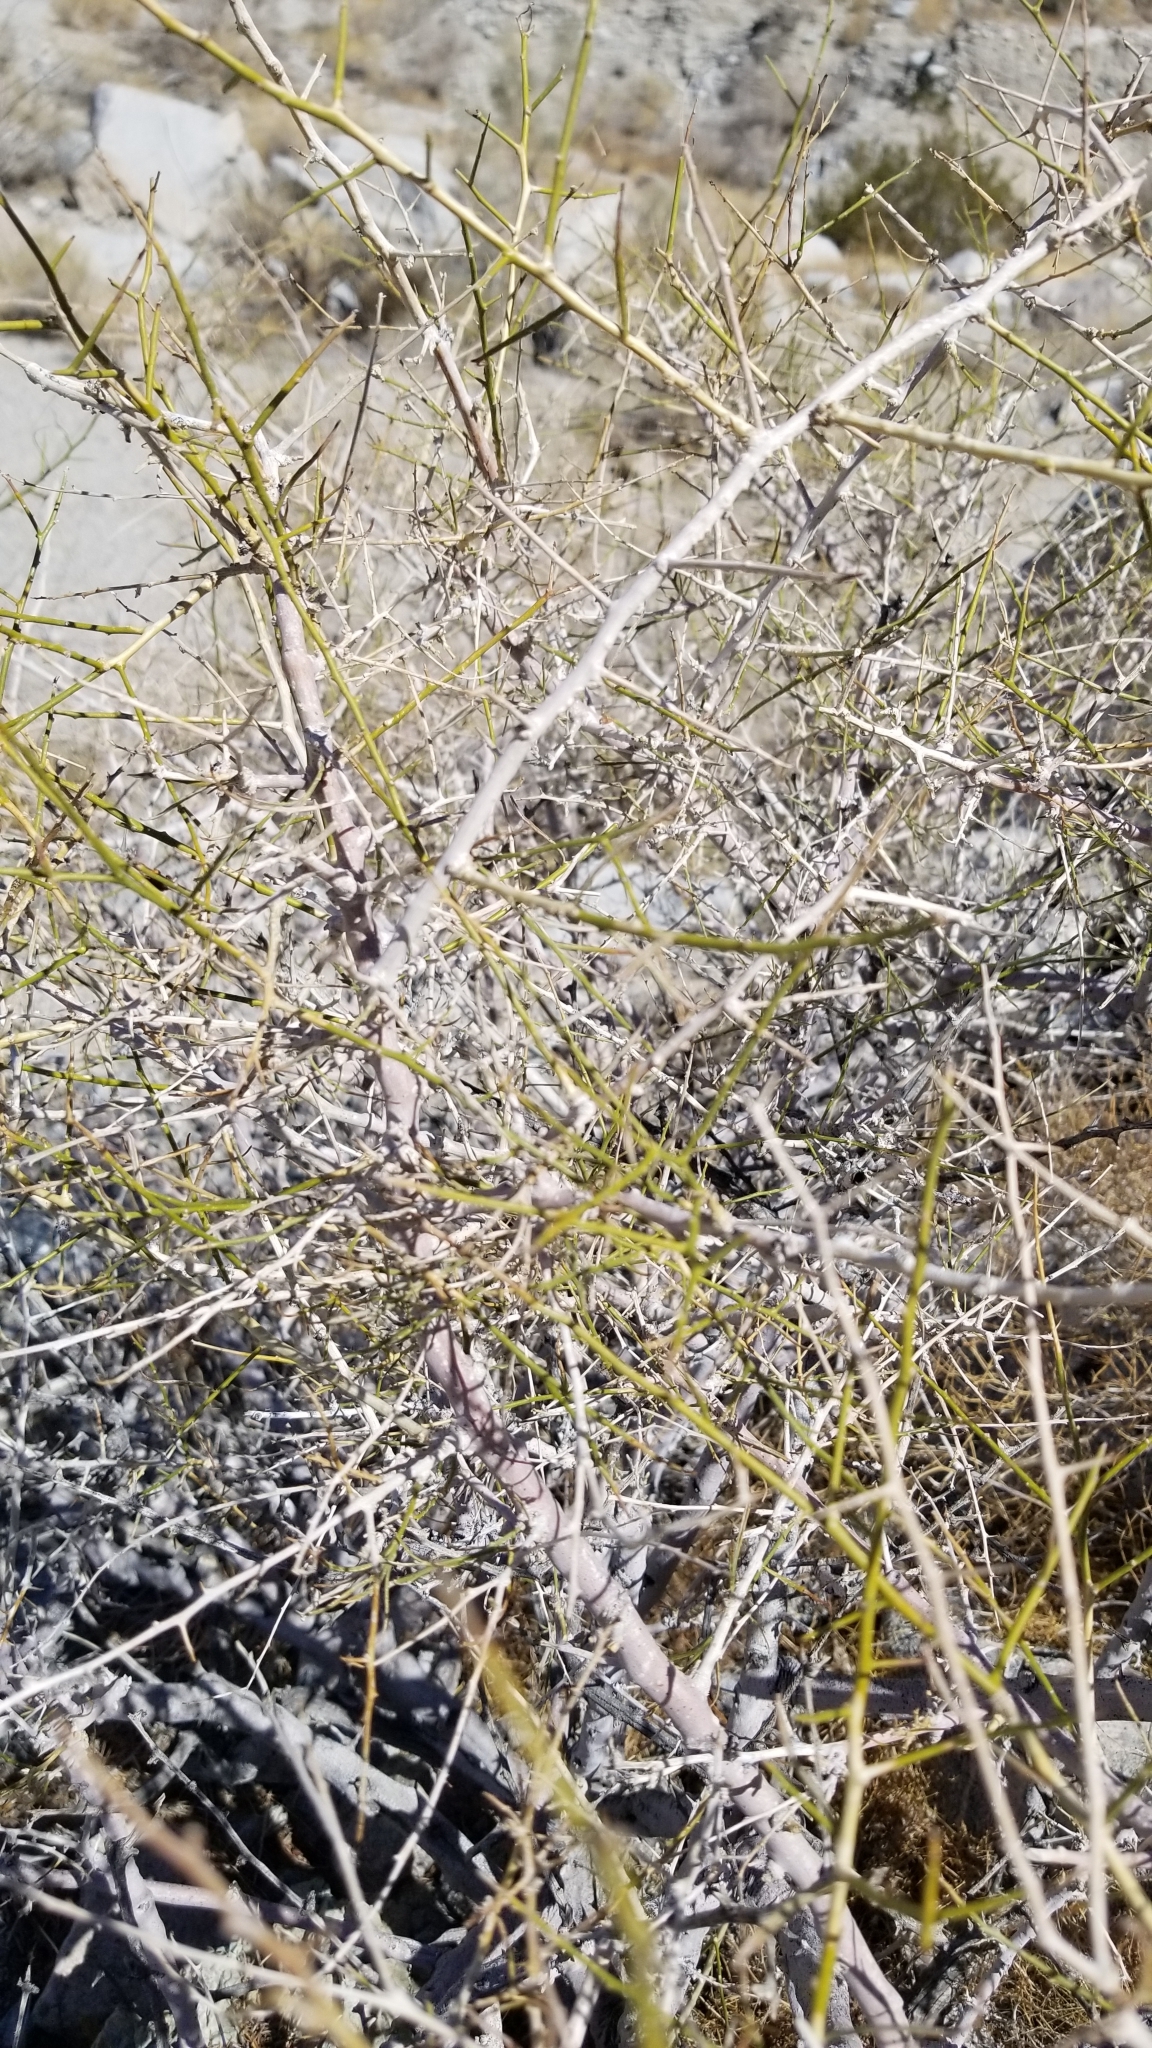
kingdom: Plantae
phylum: Tracheophyta
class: Magnoliopsida
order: Fabales
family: Fabaceae
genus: Psorothamnus
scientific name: Psorothamnus schottii
